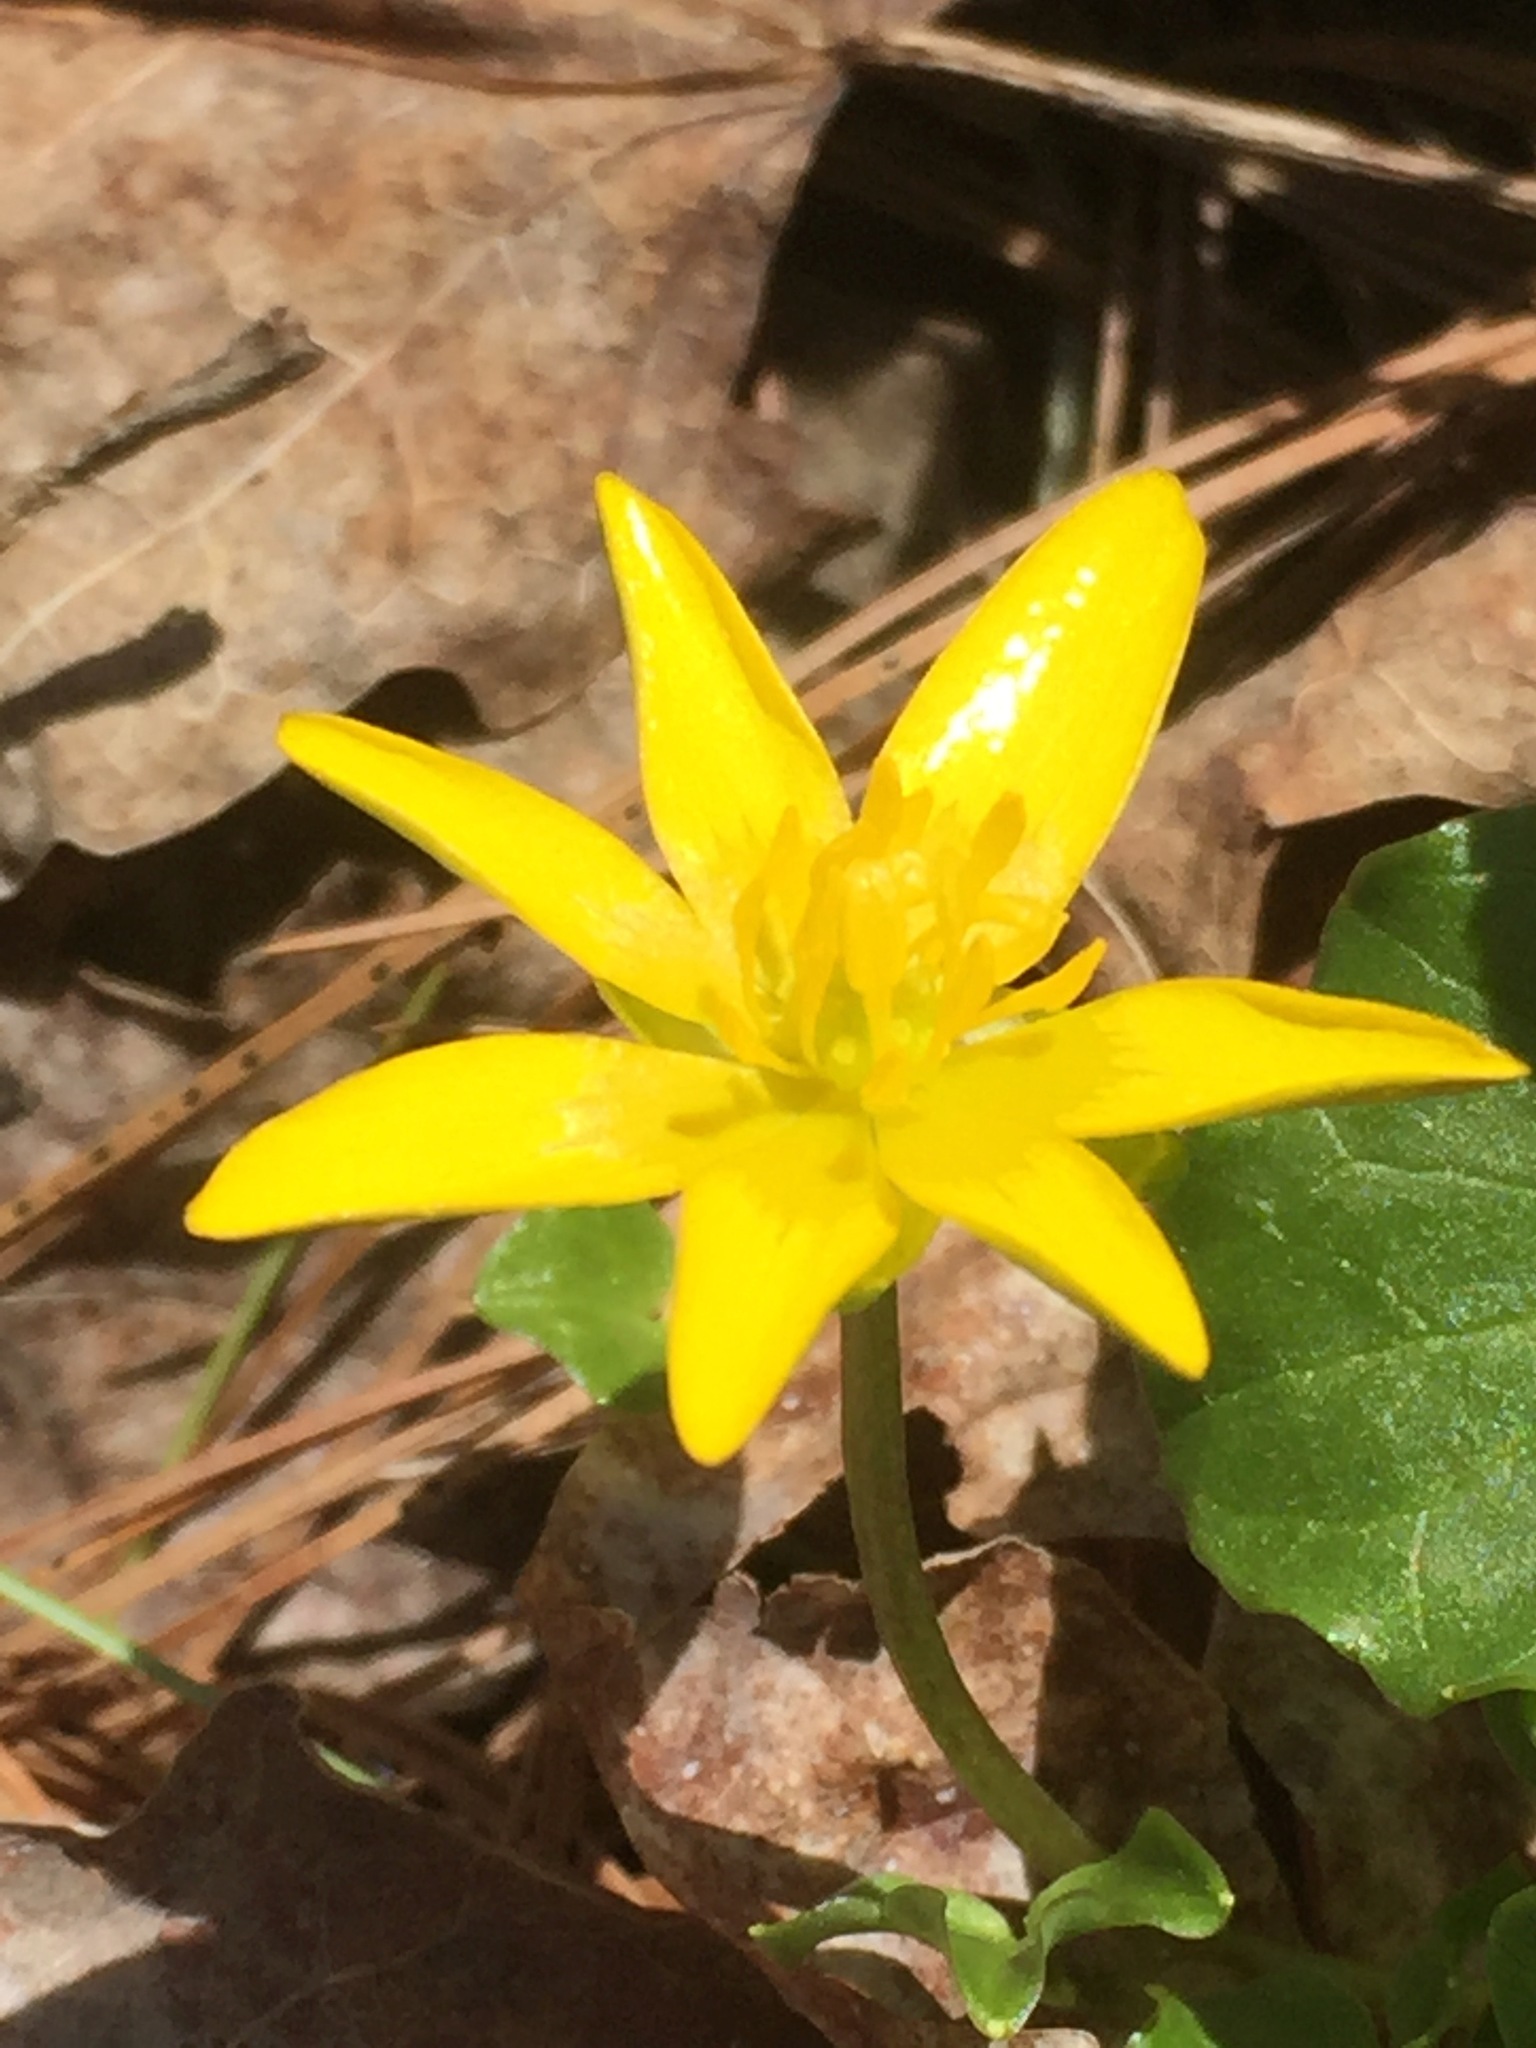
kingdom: Plantae
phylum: Tracheophyta
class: Magnoliopsida
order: Ranunculales
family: Ranunculaceae
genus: Ficaria
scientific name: Ficaria verna
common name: Lesser celandine
